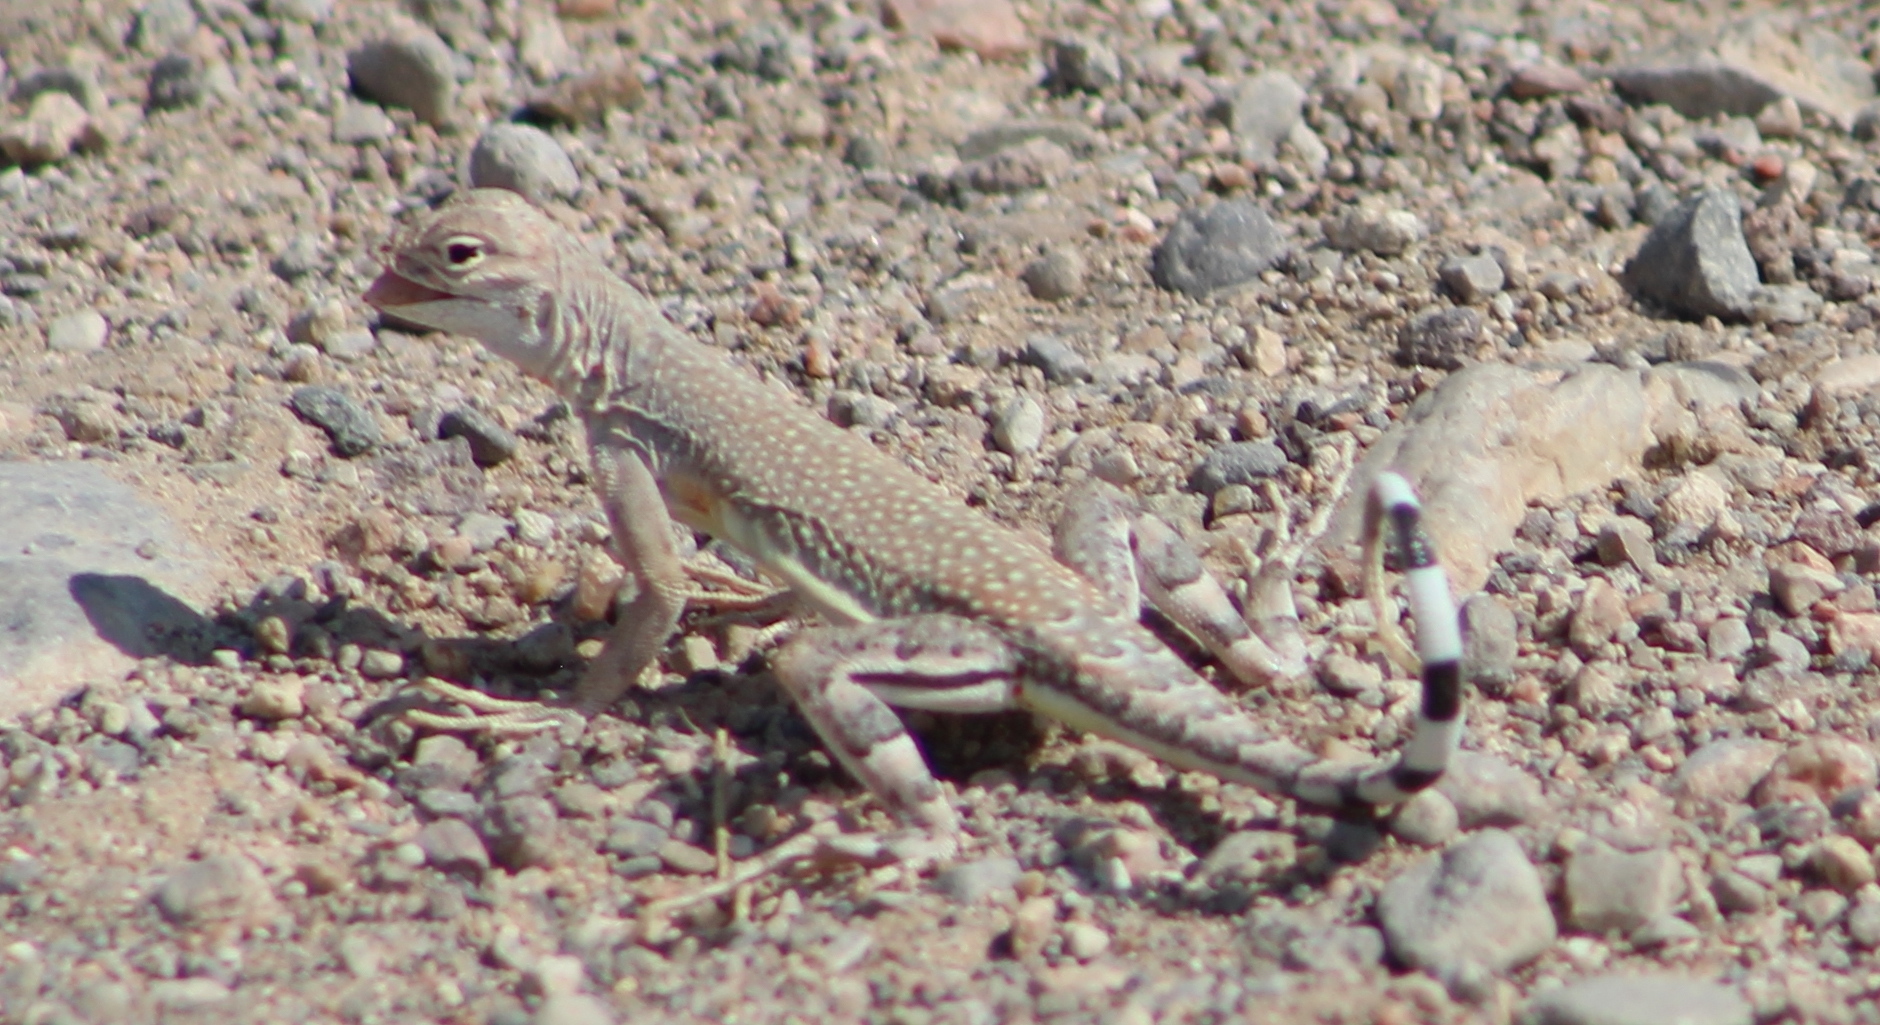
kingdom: Animalia
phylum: Chordata
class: Squamata
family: Phrynosomatidae
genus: Callisaurus
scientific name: Callisaurus draconoides
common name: Zebra-tailed lizard
